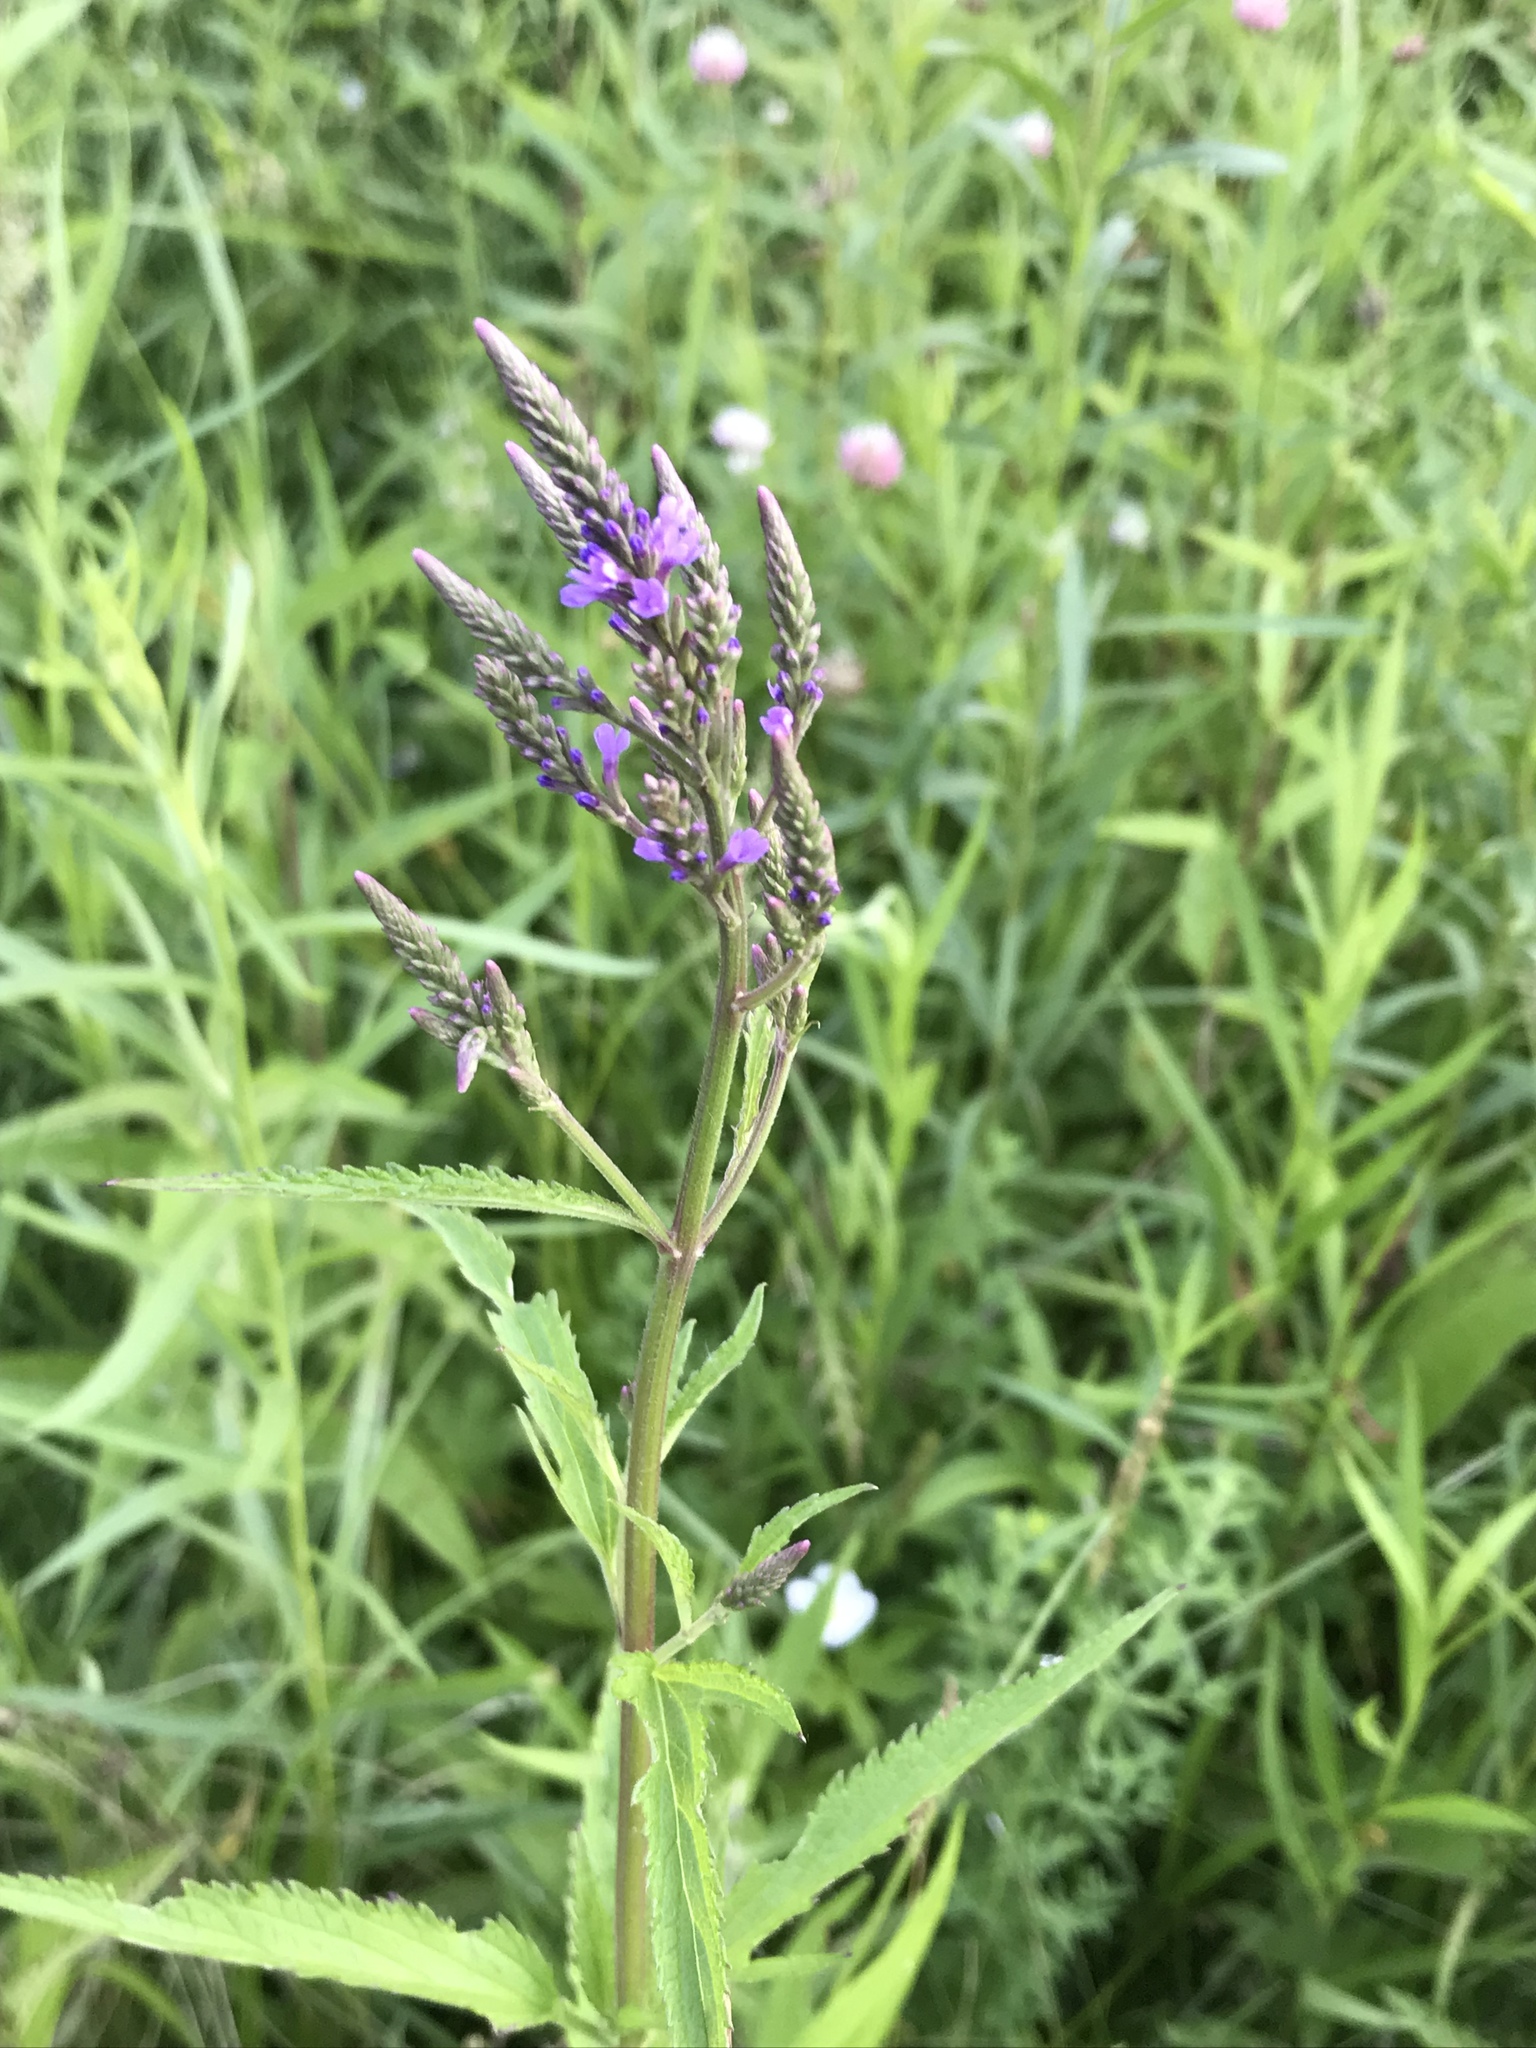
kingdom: Plantae
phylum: Tracheophyta
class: Magnoliopsida
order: Lamiales
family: Verbenaceae
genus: Verbena
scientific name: Verbena hastata
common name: American blue vervain
